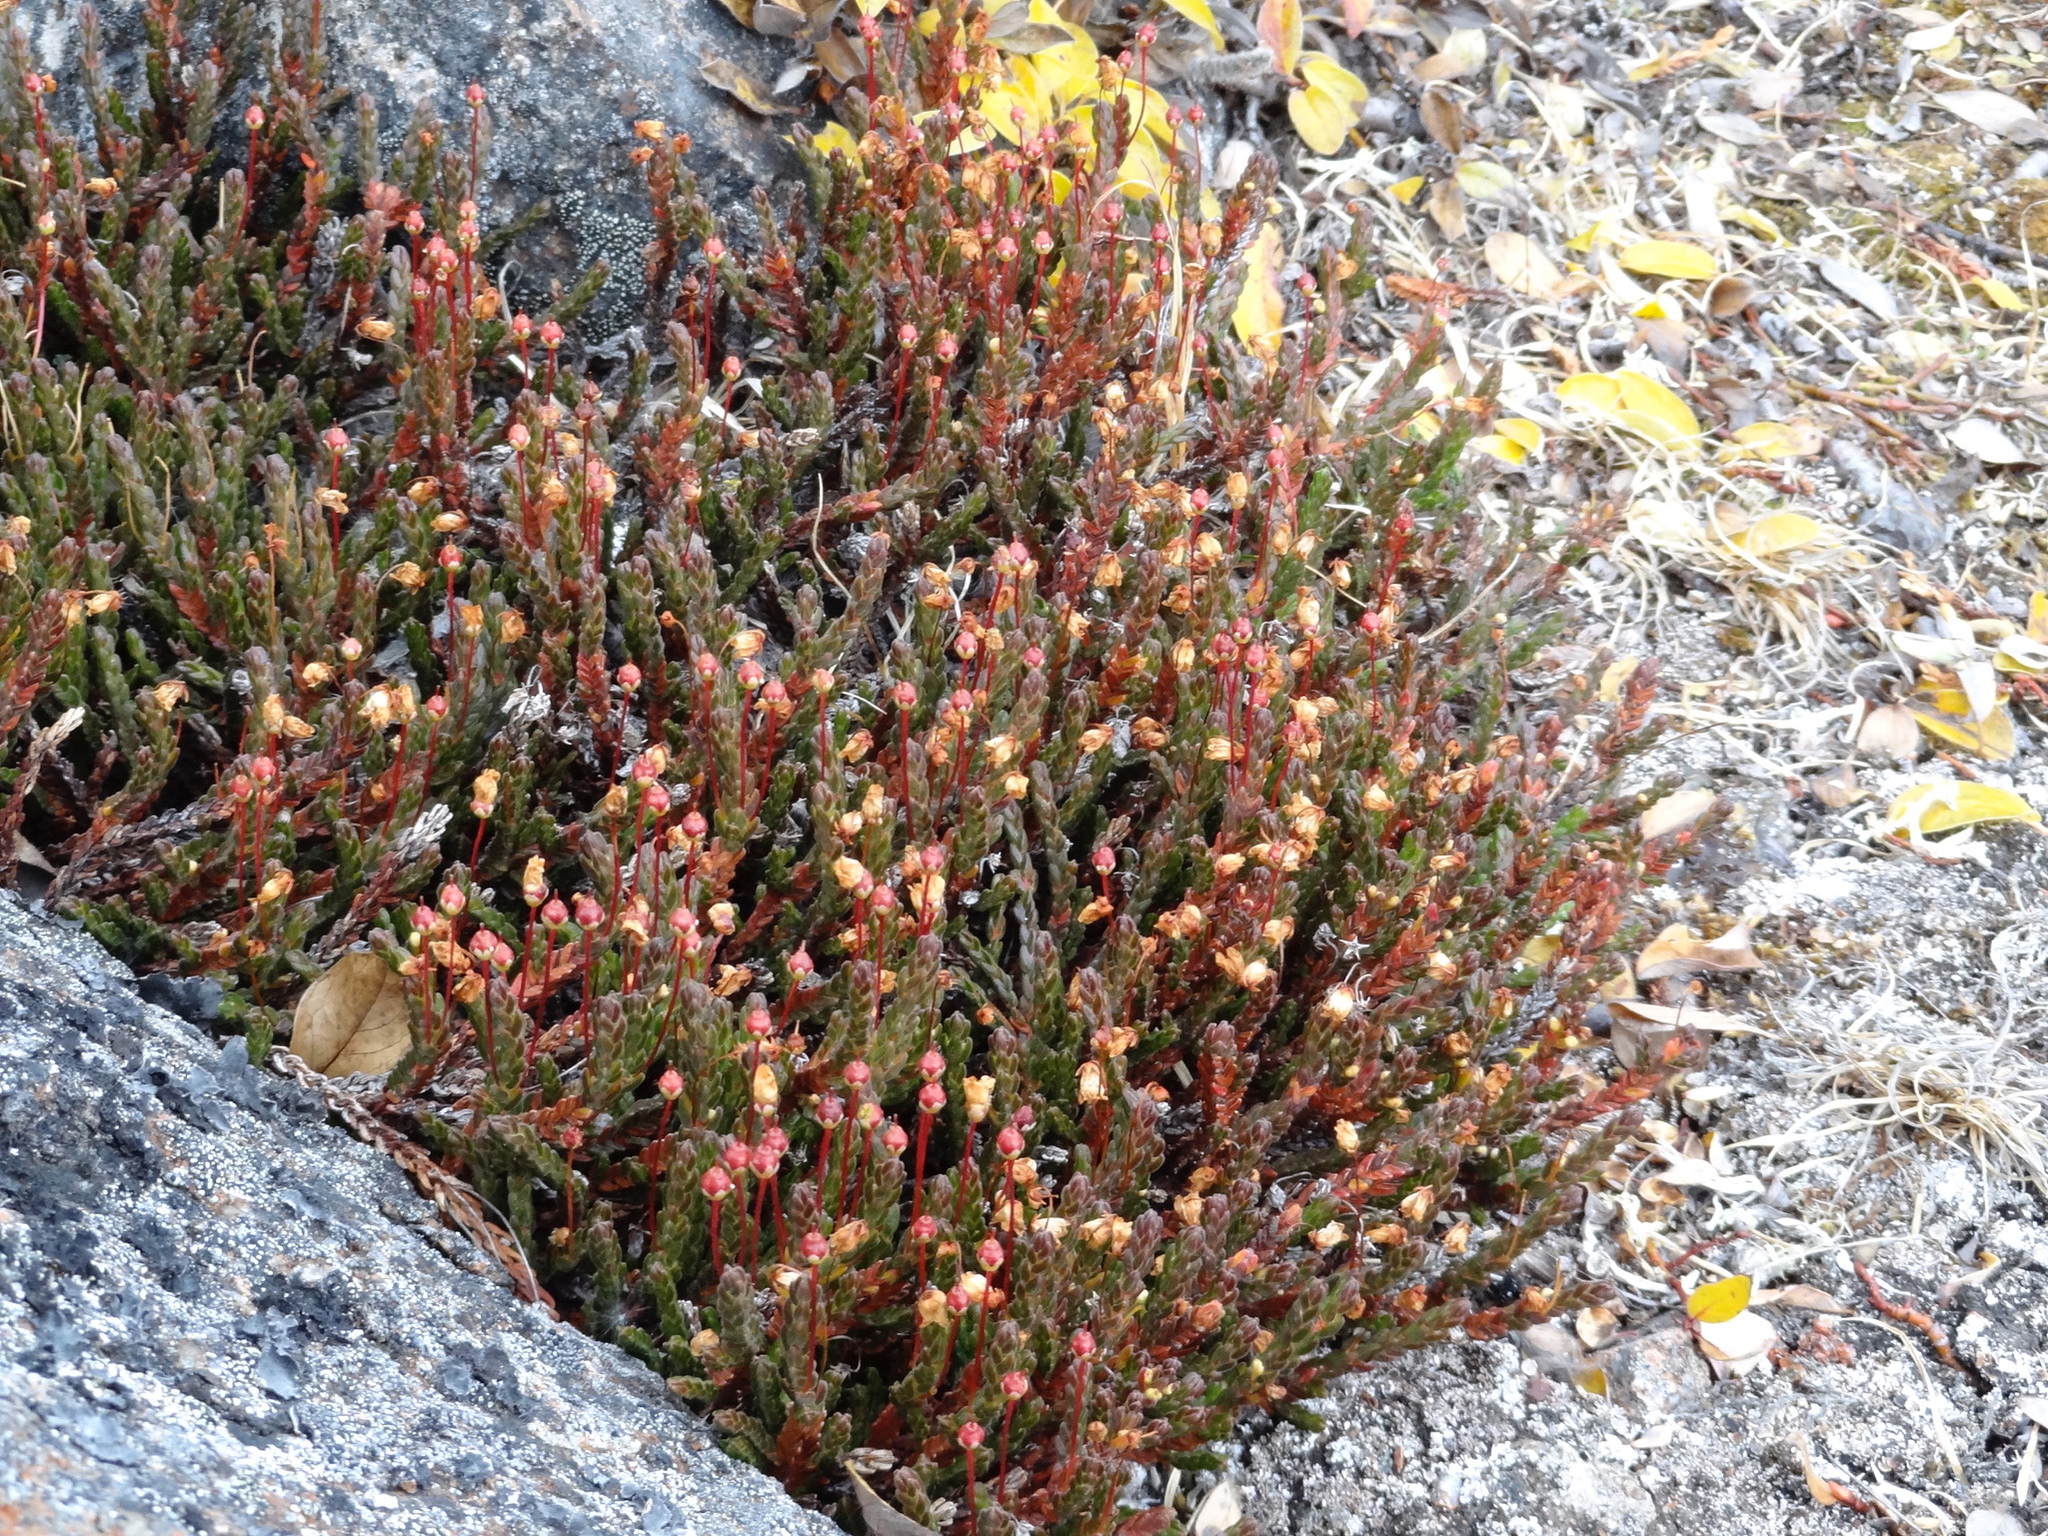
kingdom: Plantae
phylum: Tracheophyta
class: Magnoliopsida
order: Ericales
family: Ericaceae
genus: Cassiope
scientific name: Cassiope tetragona
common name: Arctic bell heather
